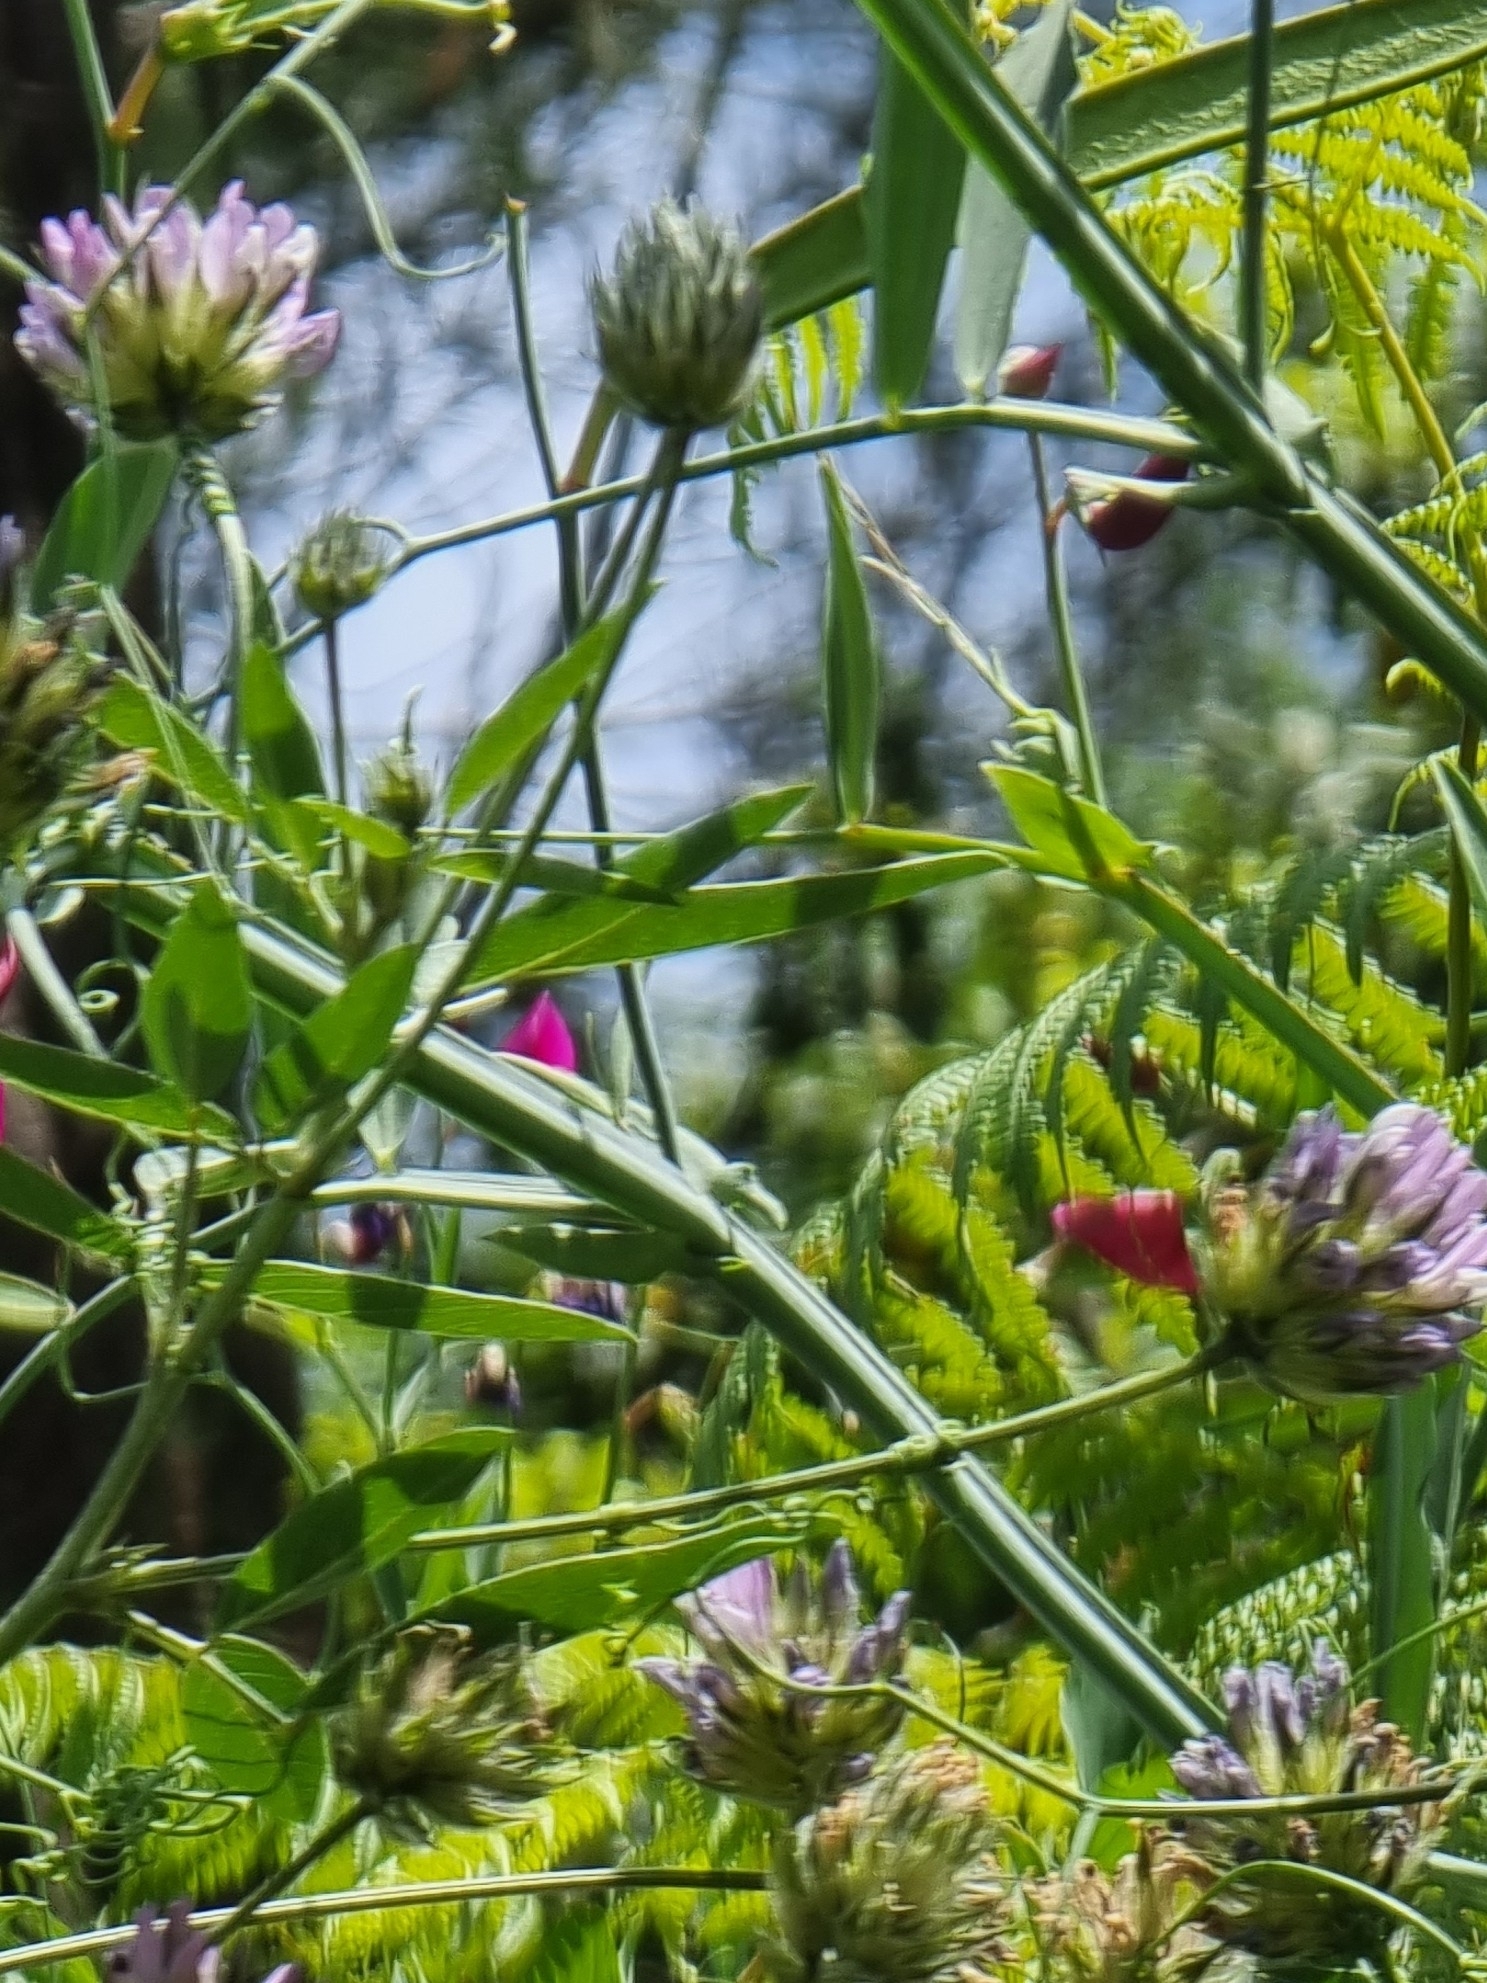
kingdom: Plantae
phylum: Tracheophyta
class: Magnoliopsida
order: Fabales
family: Fabaceae
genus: Bituminaria
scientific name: Bituminaria bituminosa
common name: Arabian pea
